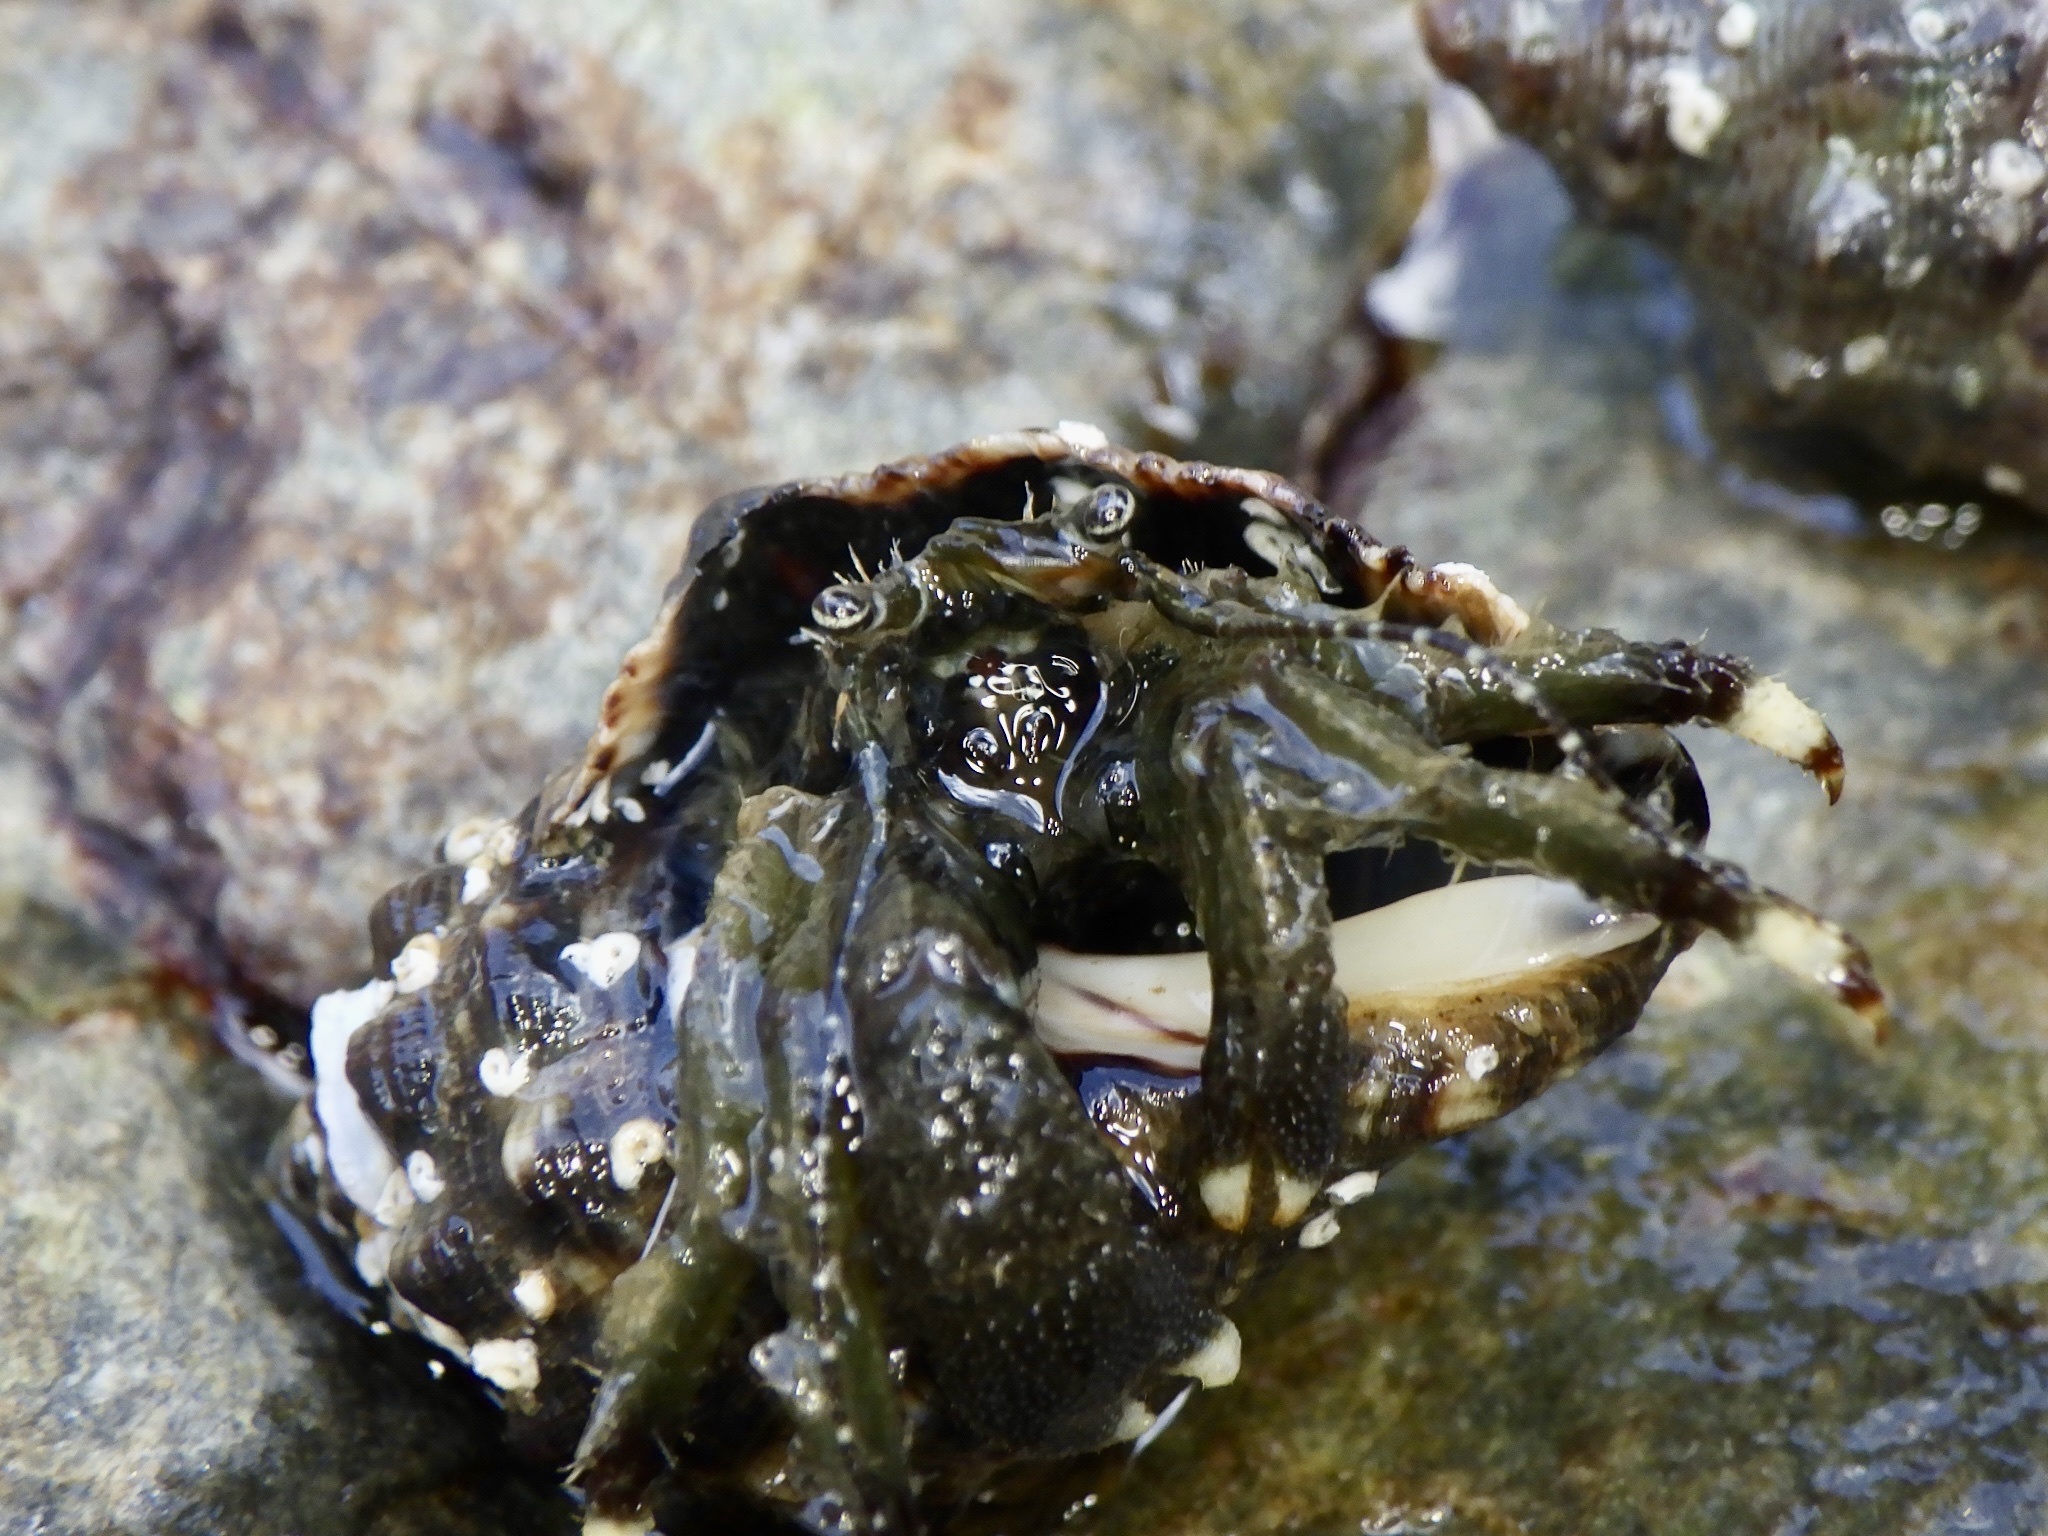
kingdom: Animalia
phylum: Arthropoda
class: Malacostraca
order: Decapoda
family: Paguridae
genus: Pagurus
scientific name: Pagurus filholi
